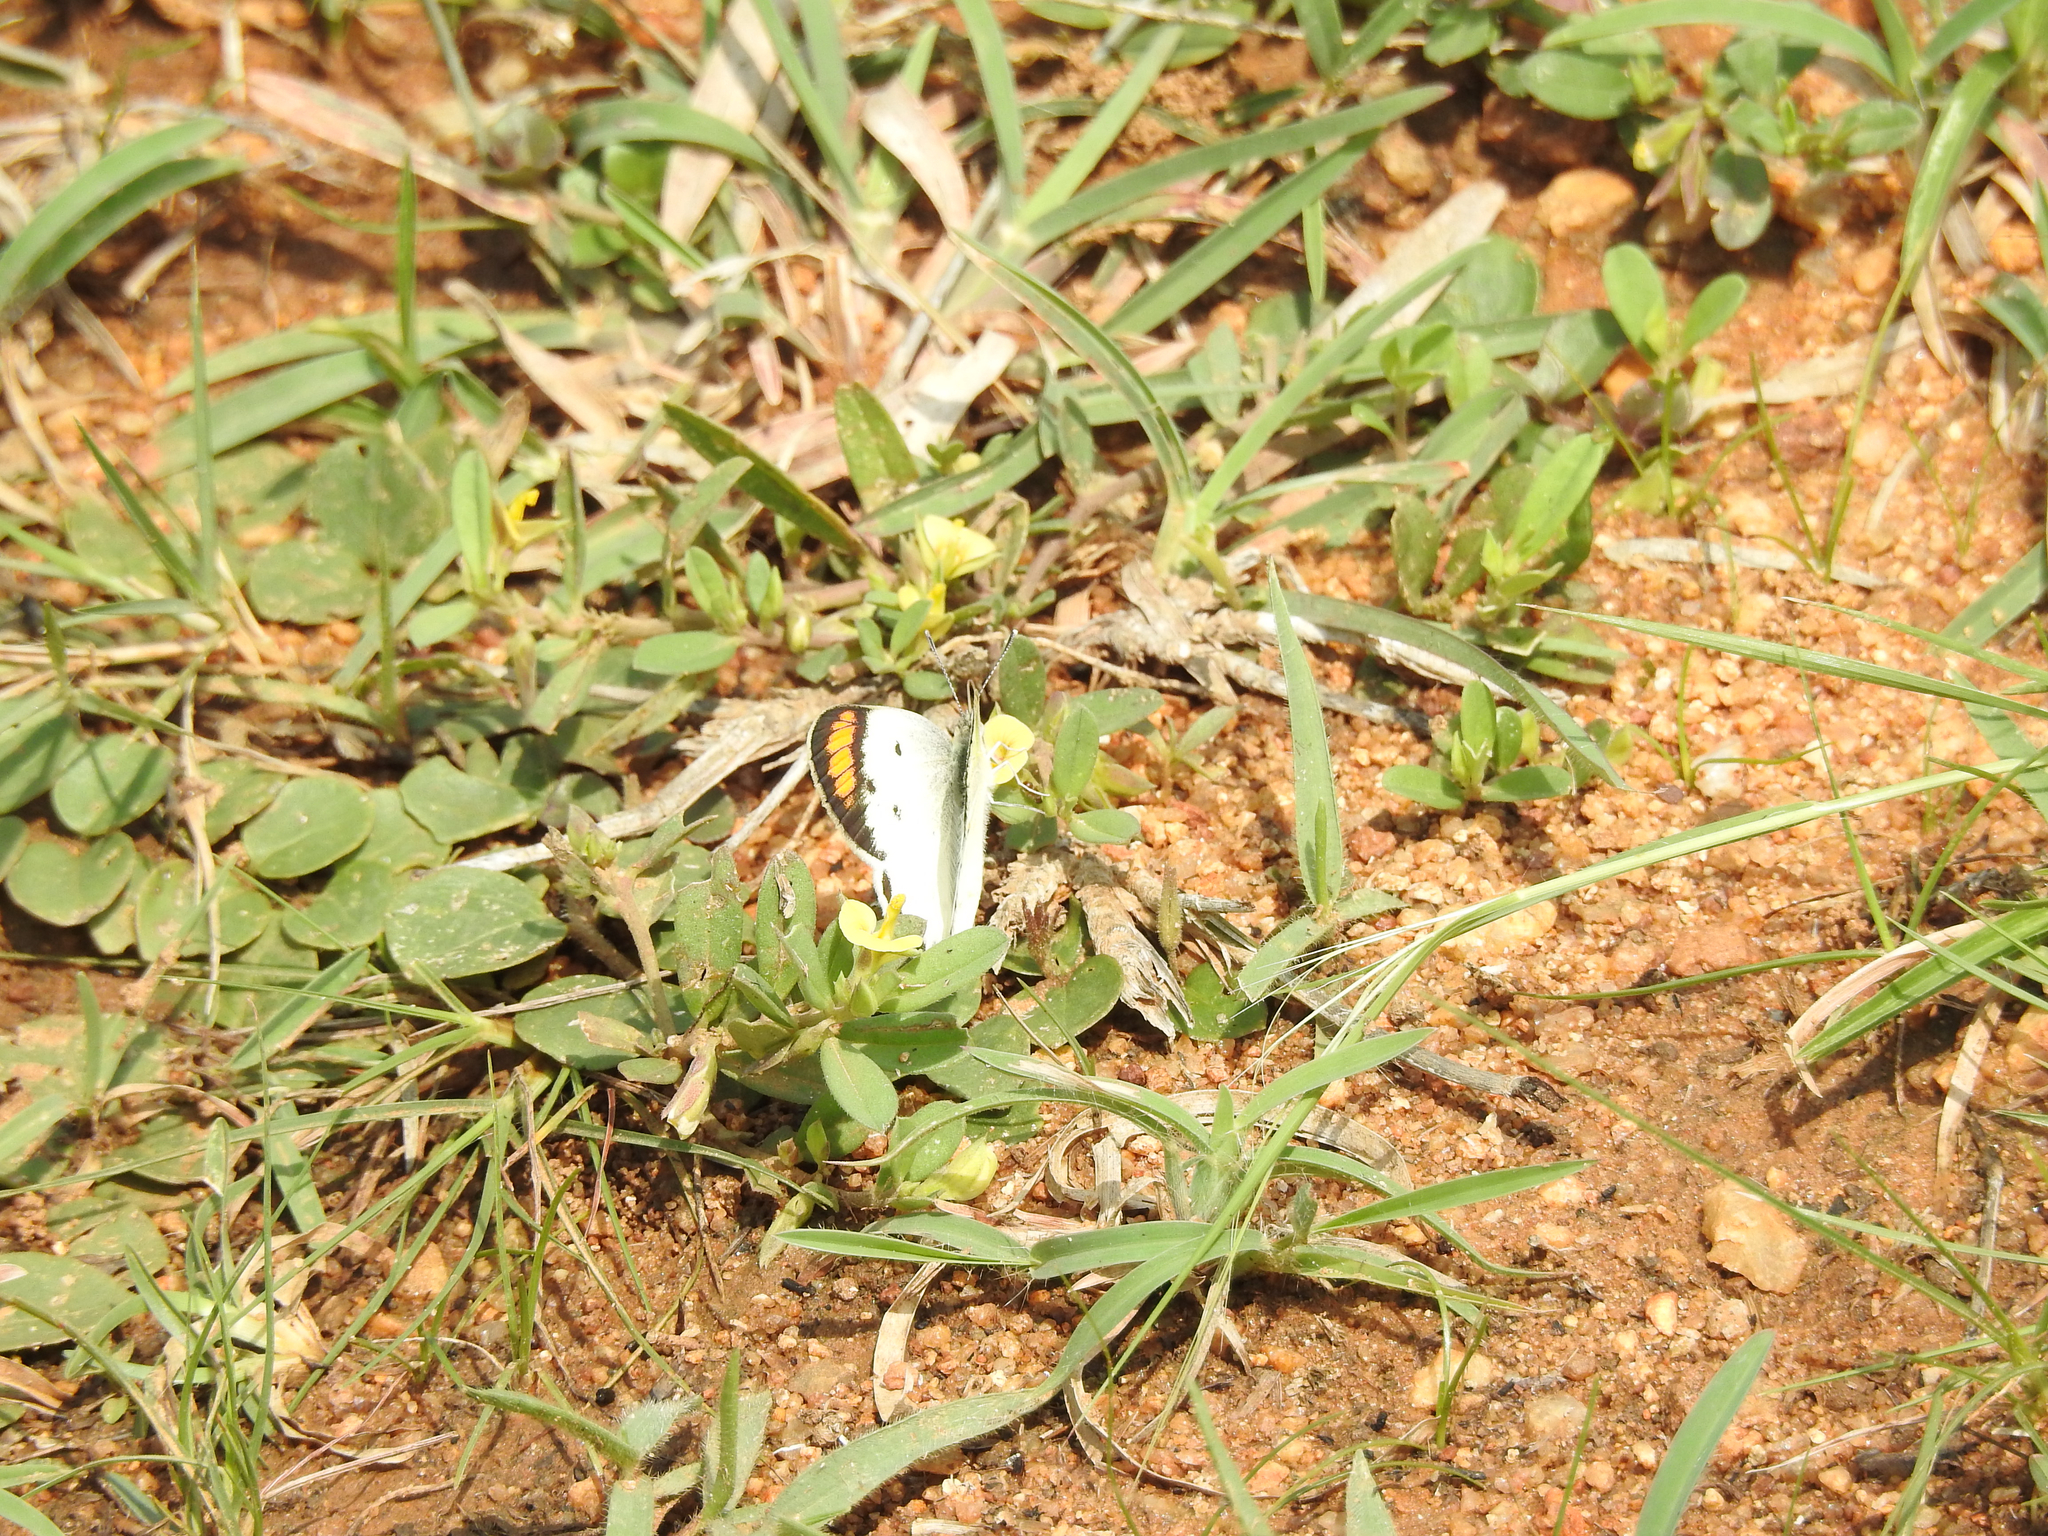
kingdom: Animalia
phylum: Arthropoda
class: Insecta
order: Lepidoptera
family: Pieridae
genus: Colotis
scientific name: Colotis etrida
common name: Little orange tip
